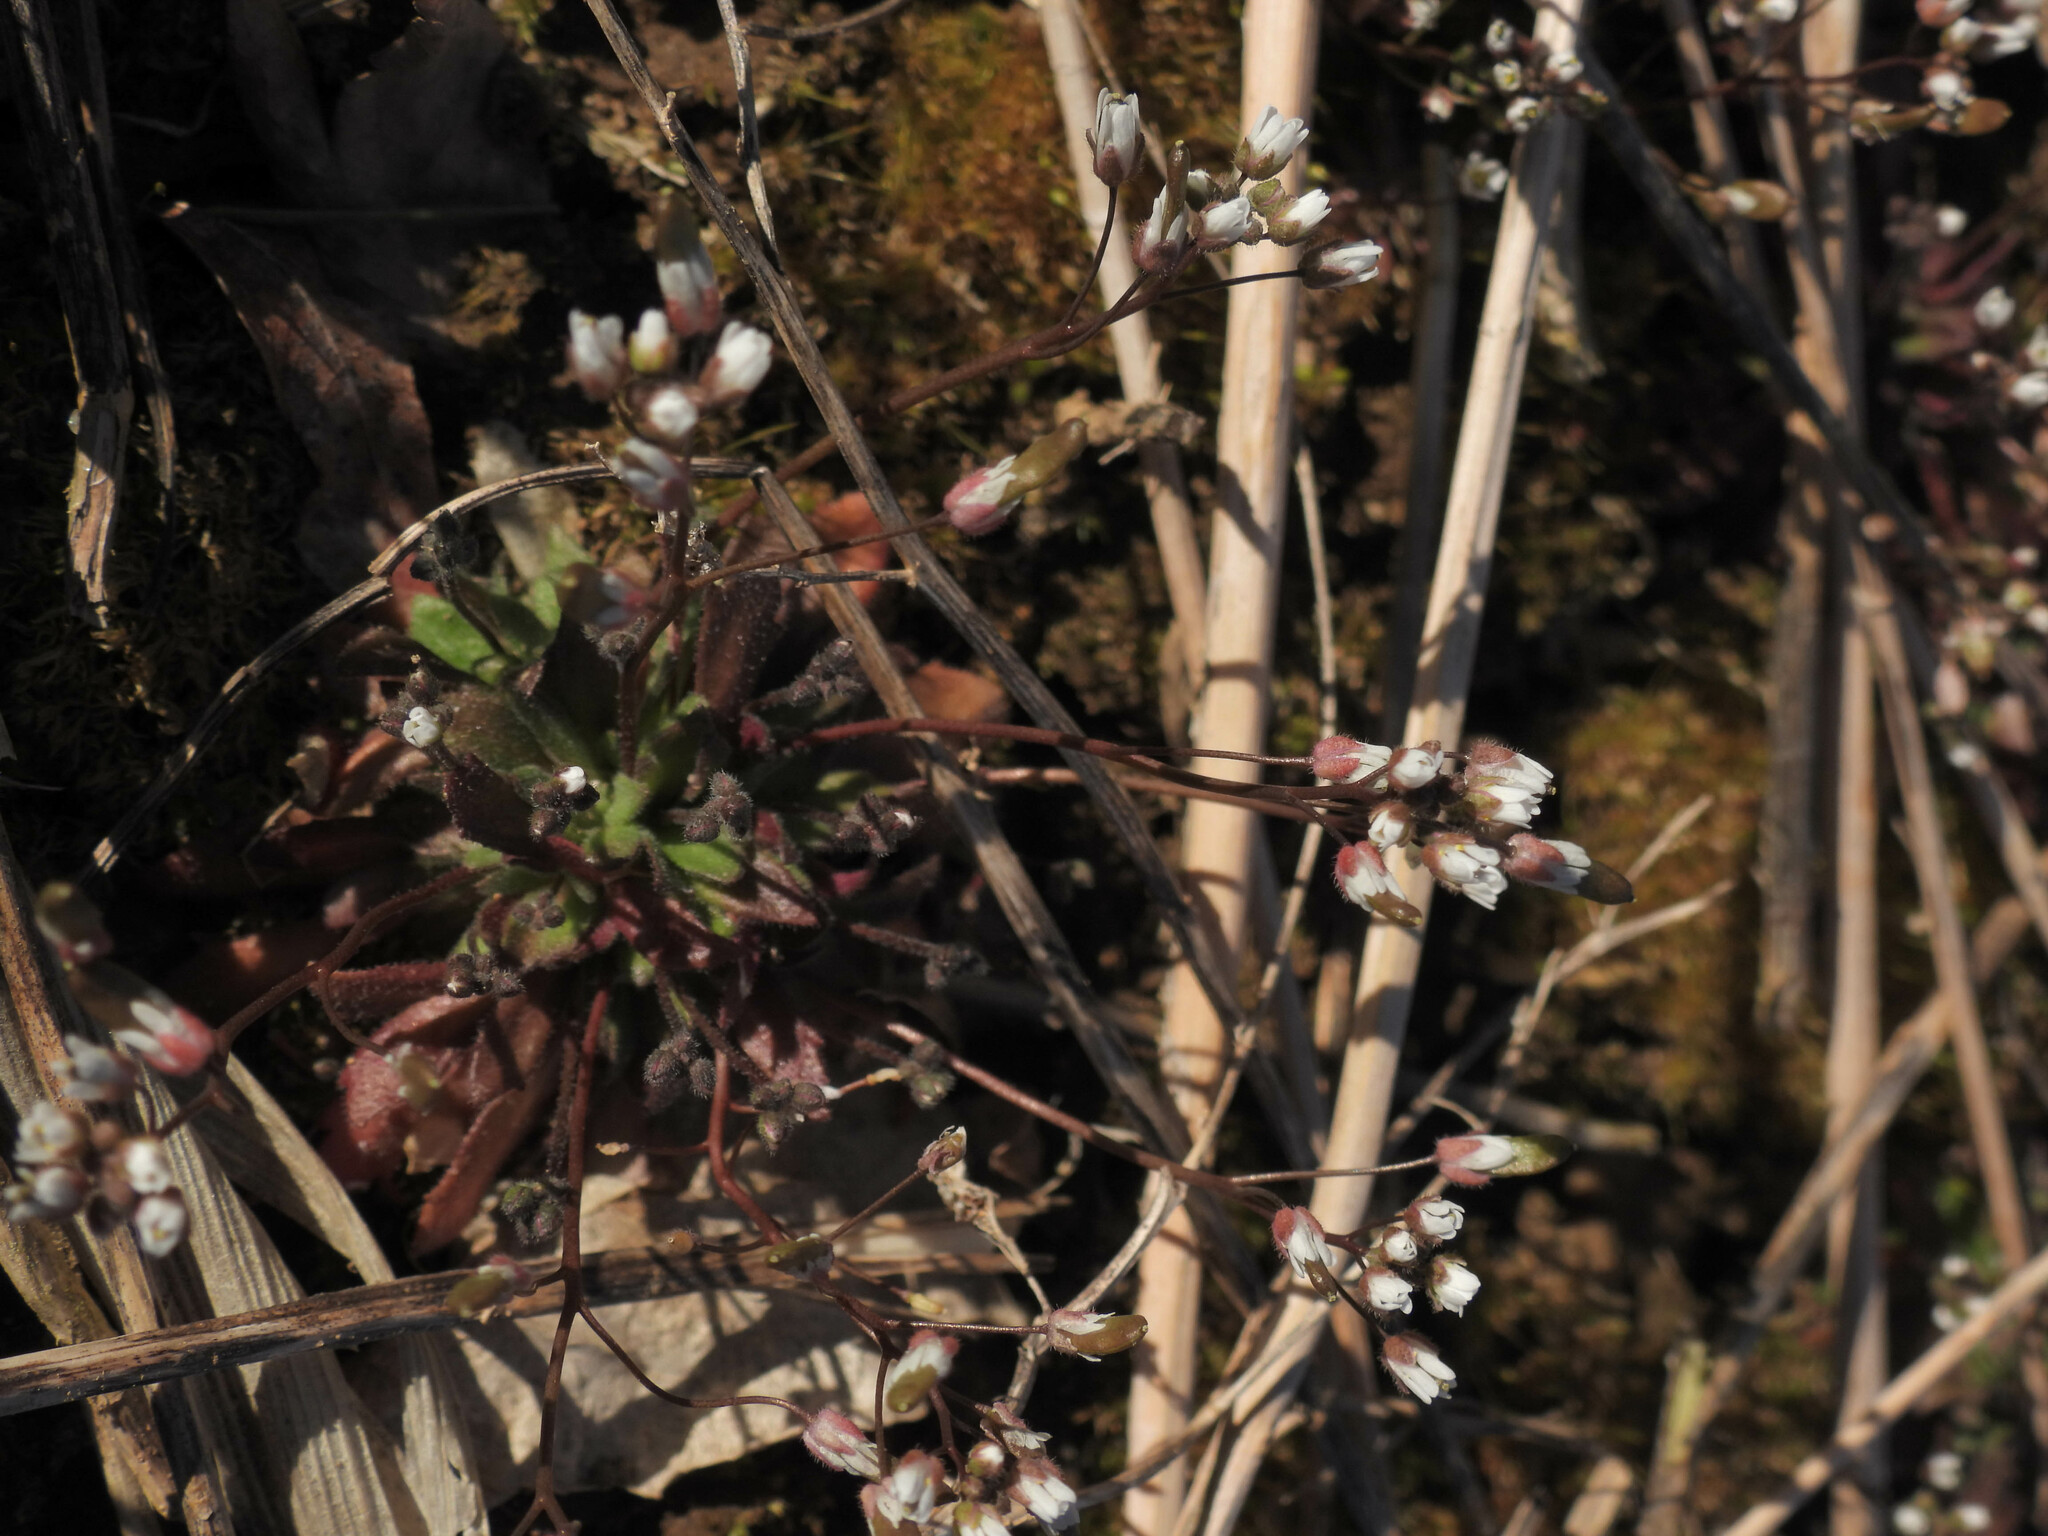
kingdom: Plantae
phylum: Tracheophyta
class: Magnoliopsida
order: Brassicales
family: Brassicaceae
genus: Draba
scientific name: Draba verna
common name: Spring draba
